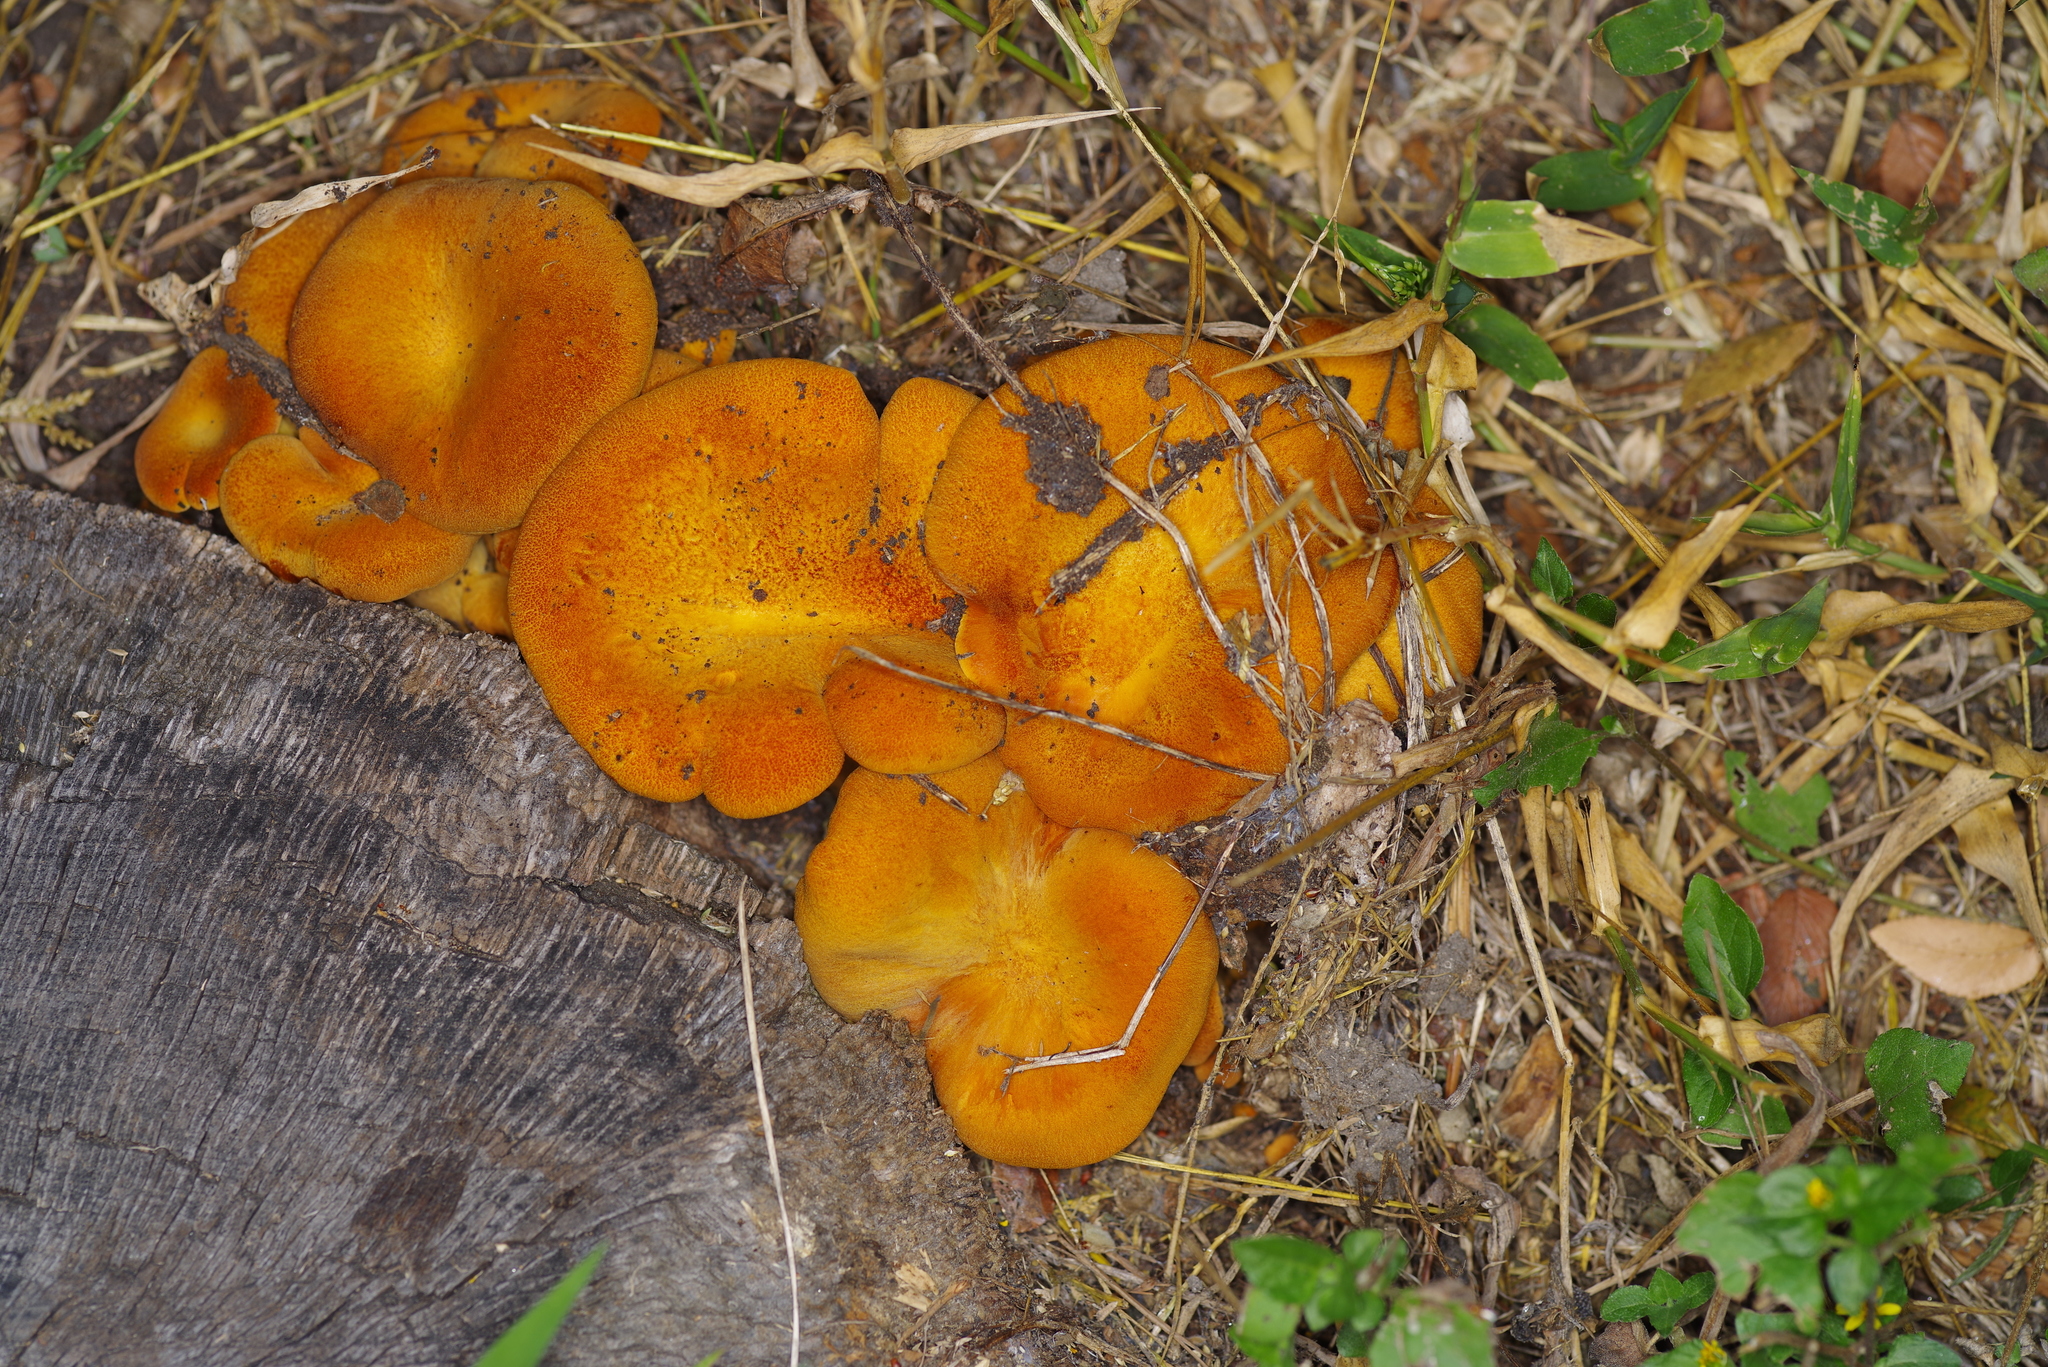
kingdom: Fungi
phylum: Basidiomycota
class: Agaricomycetes
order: Agaricales
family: Omphalotaceae
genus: Omphalotus
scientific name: Omphalotus subilludens
